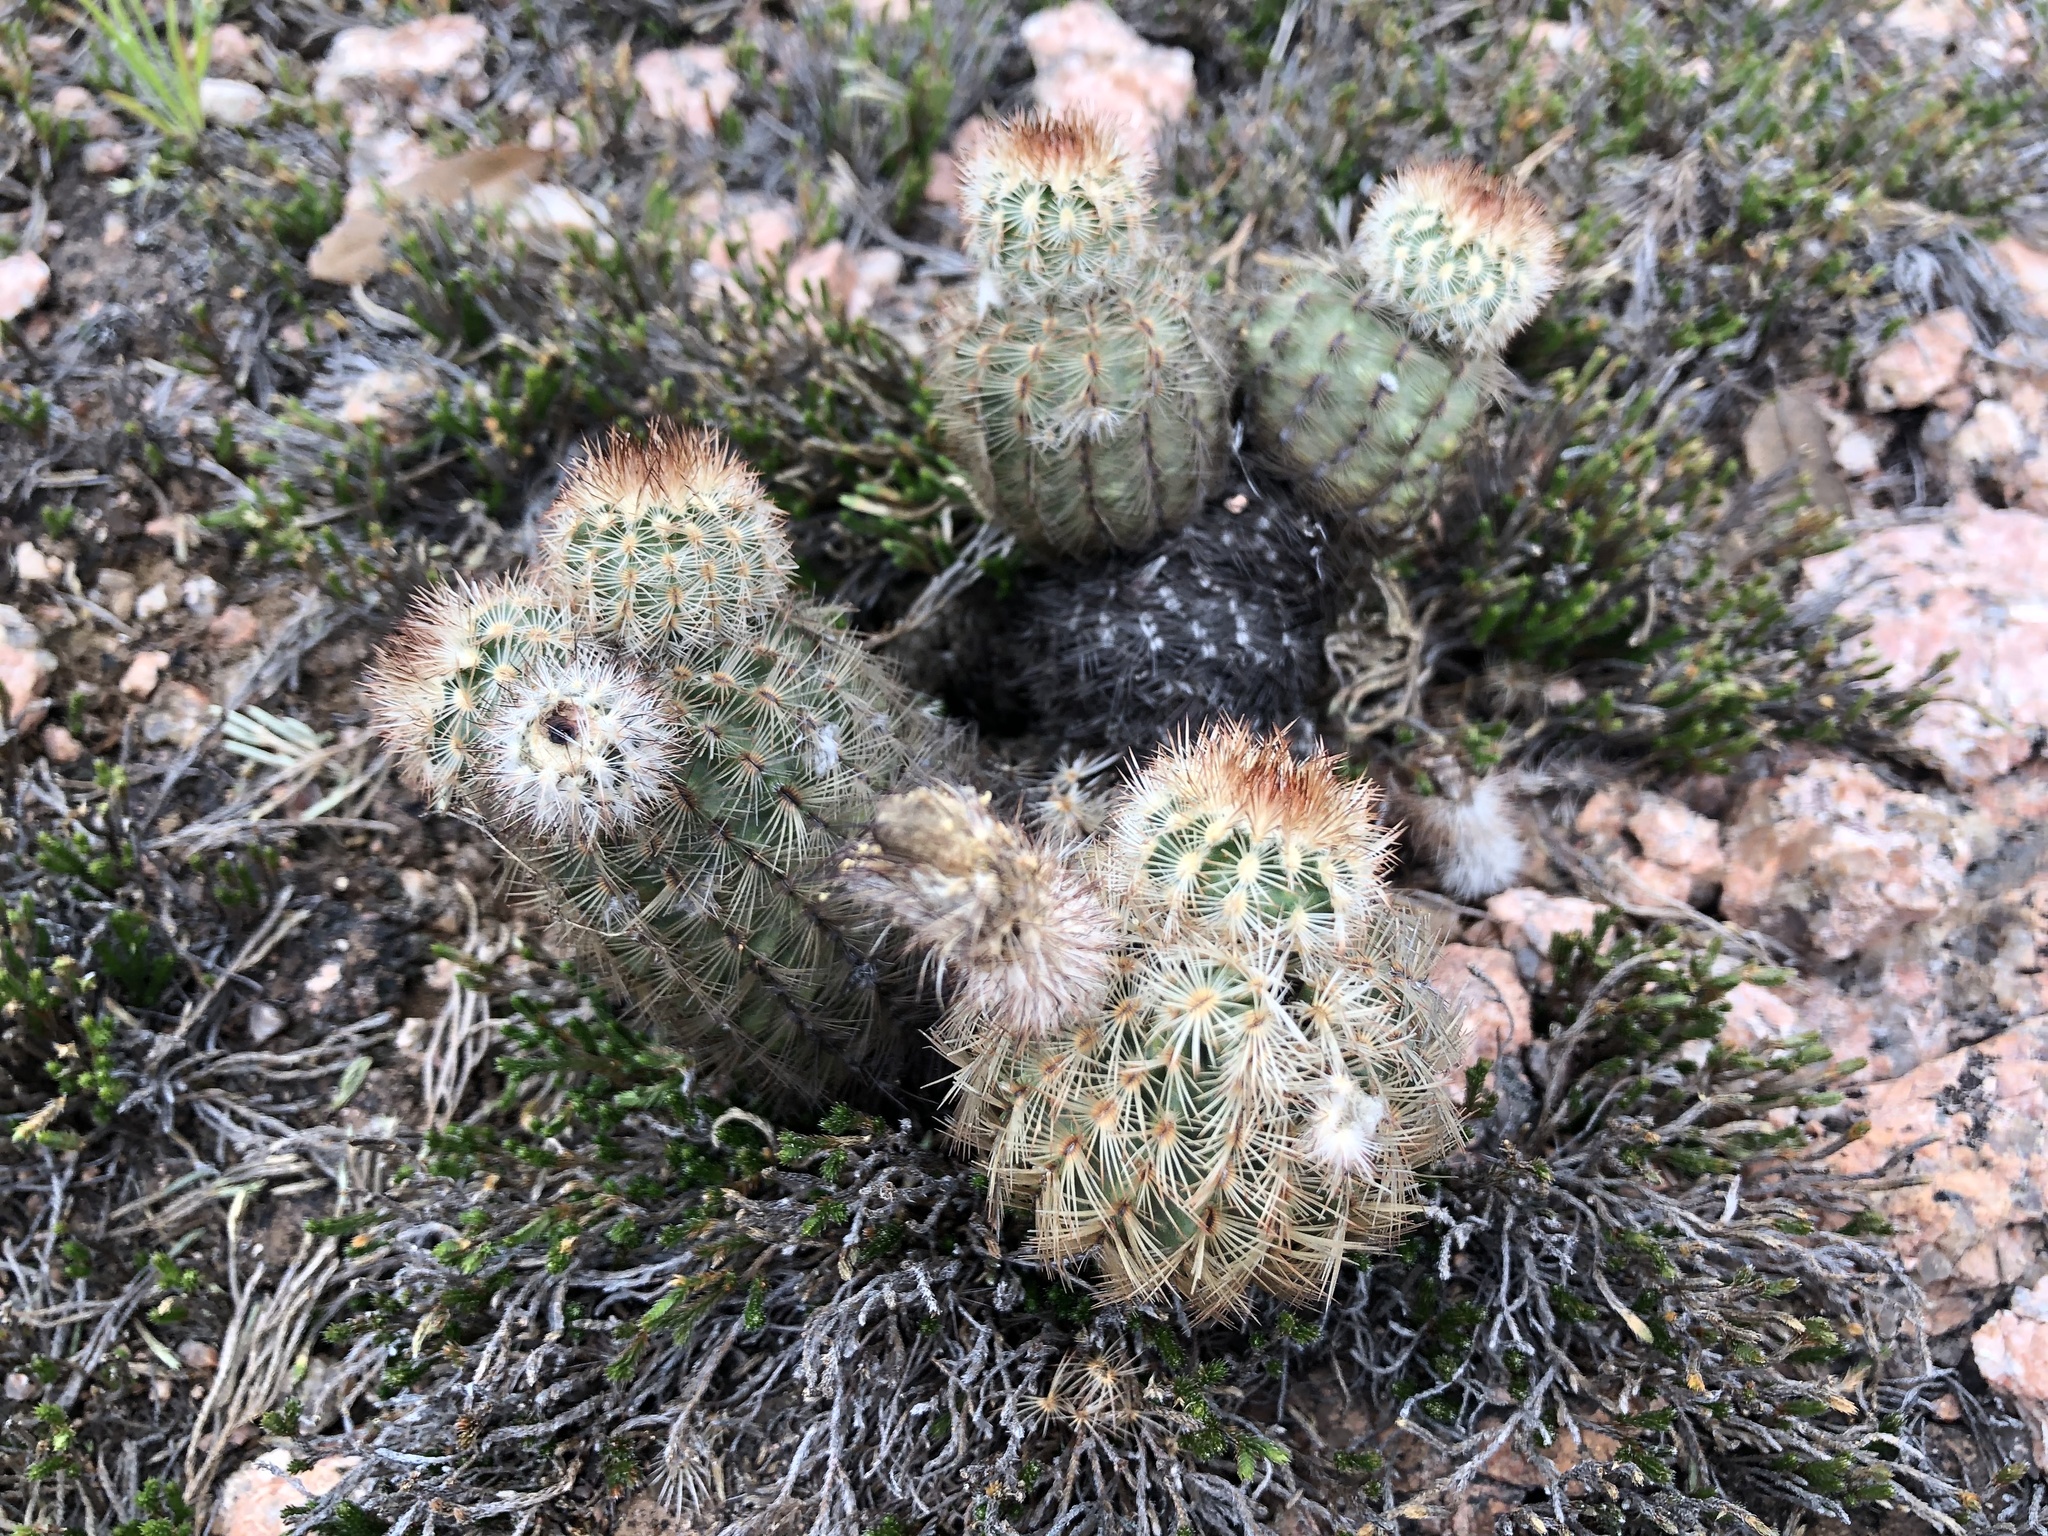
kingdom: Plantae
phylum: Tracheophyta
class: Magnoliopsida
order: Caryophyllales
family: Cactaceae
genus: Echinocereus
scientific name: Echinocereus reichenbachii
